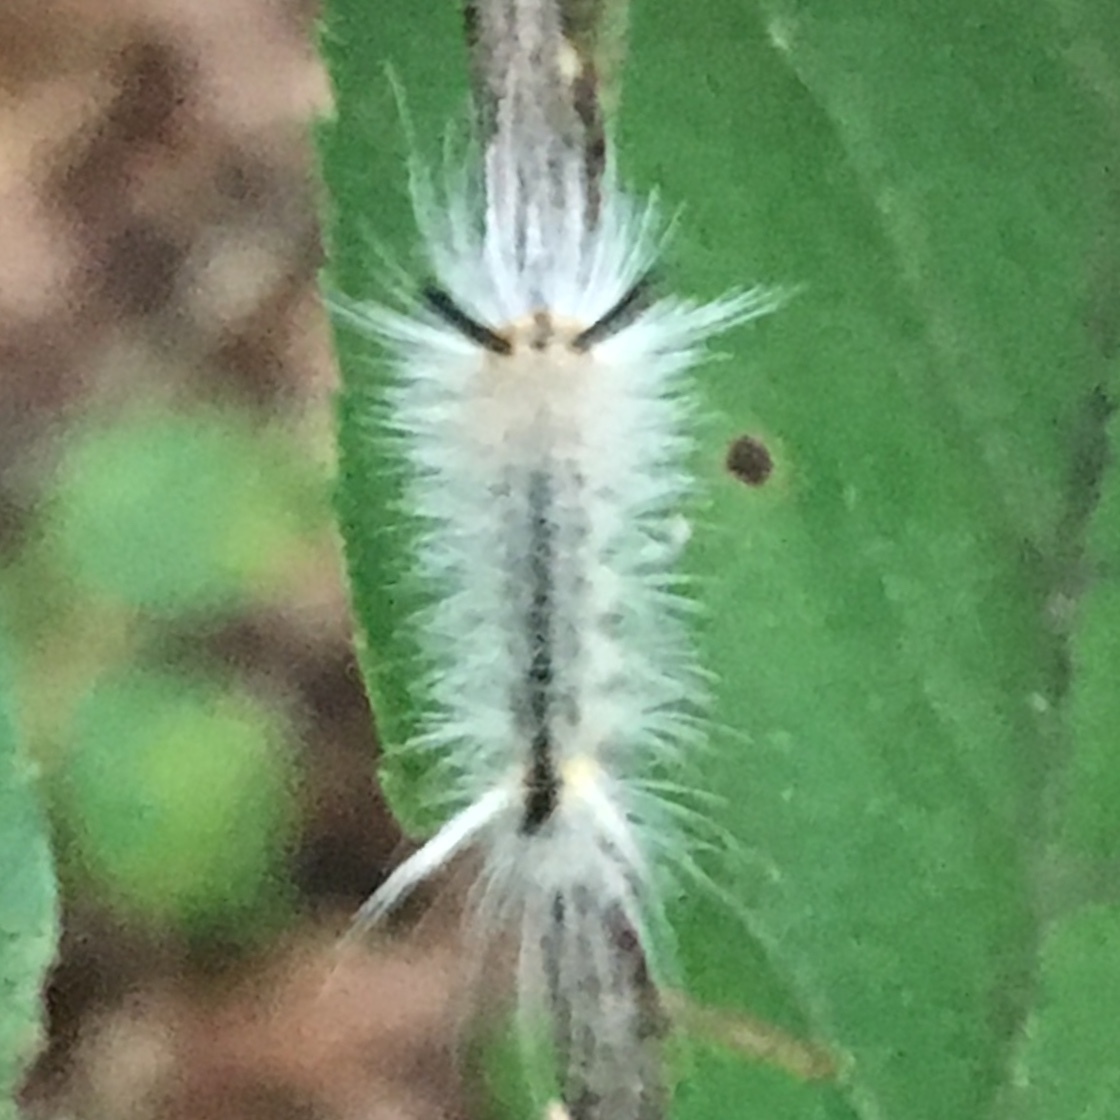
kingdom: Animalia
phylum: Arthropoda
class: Insecta
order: Lepidoptera
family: Erebidae
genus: Halysidota
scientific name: Halysidota tessellaris
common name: Banded tussock moth
